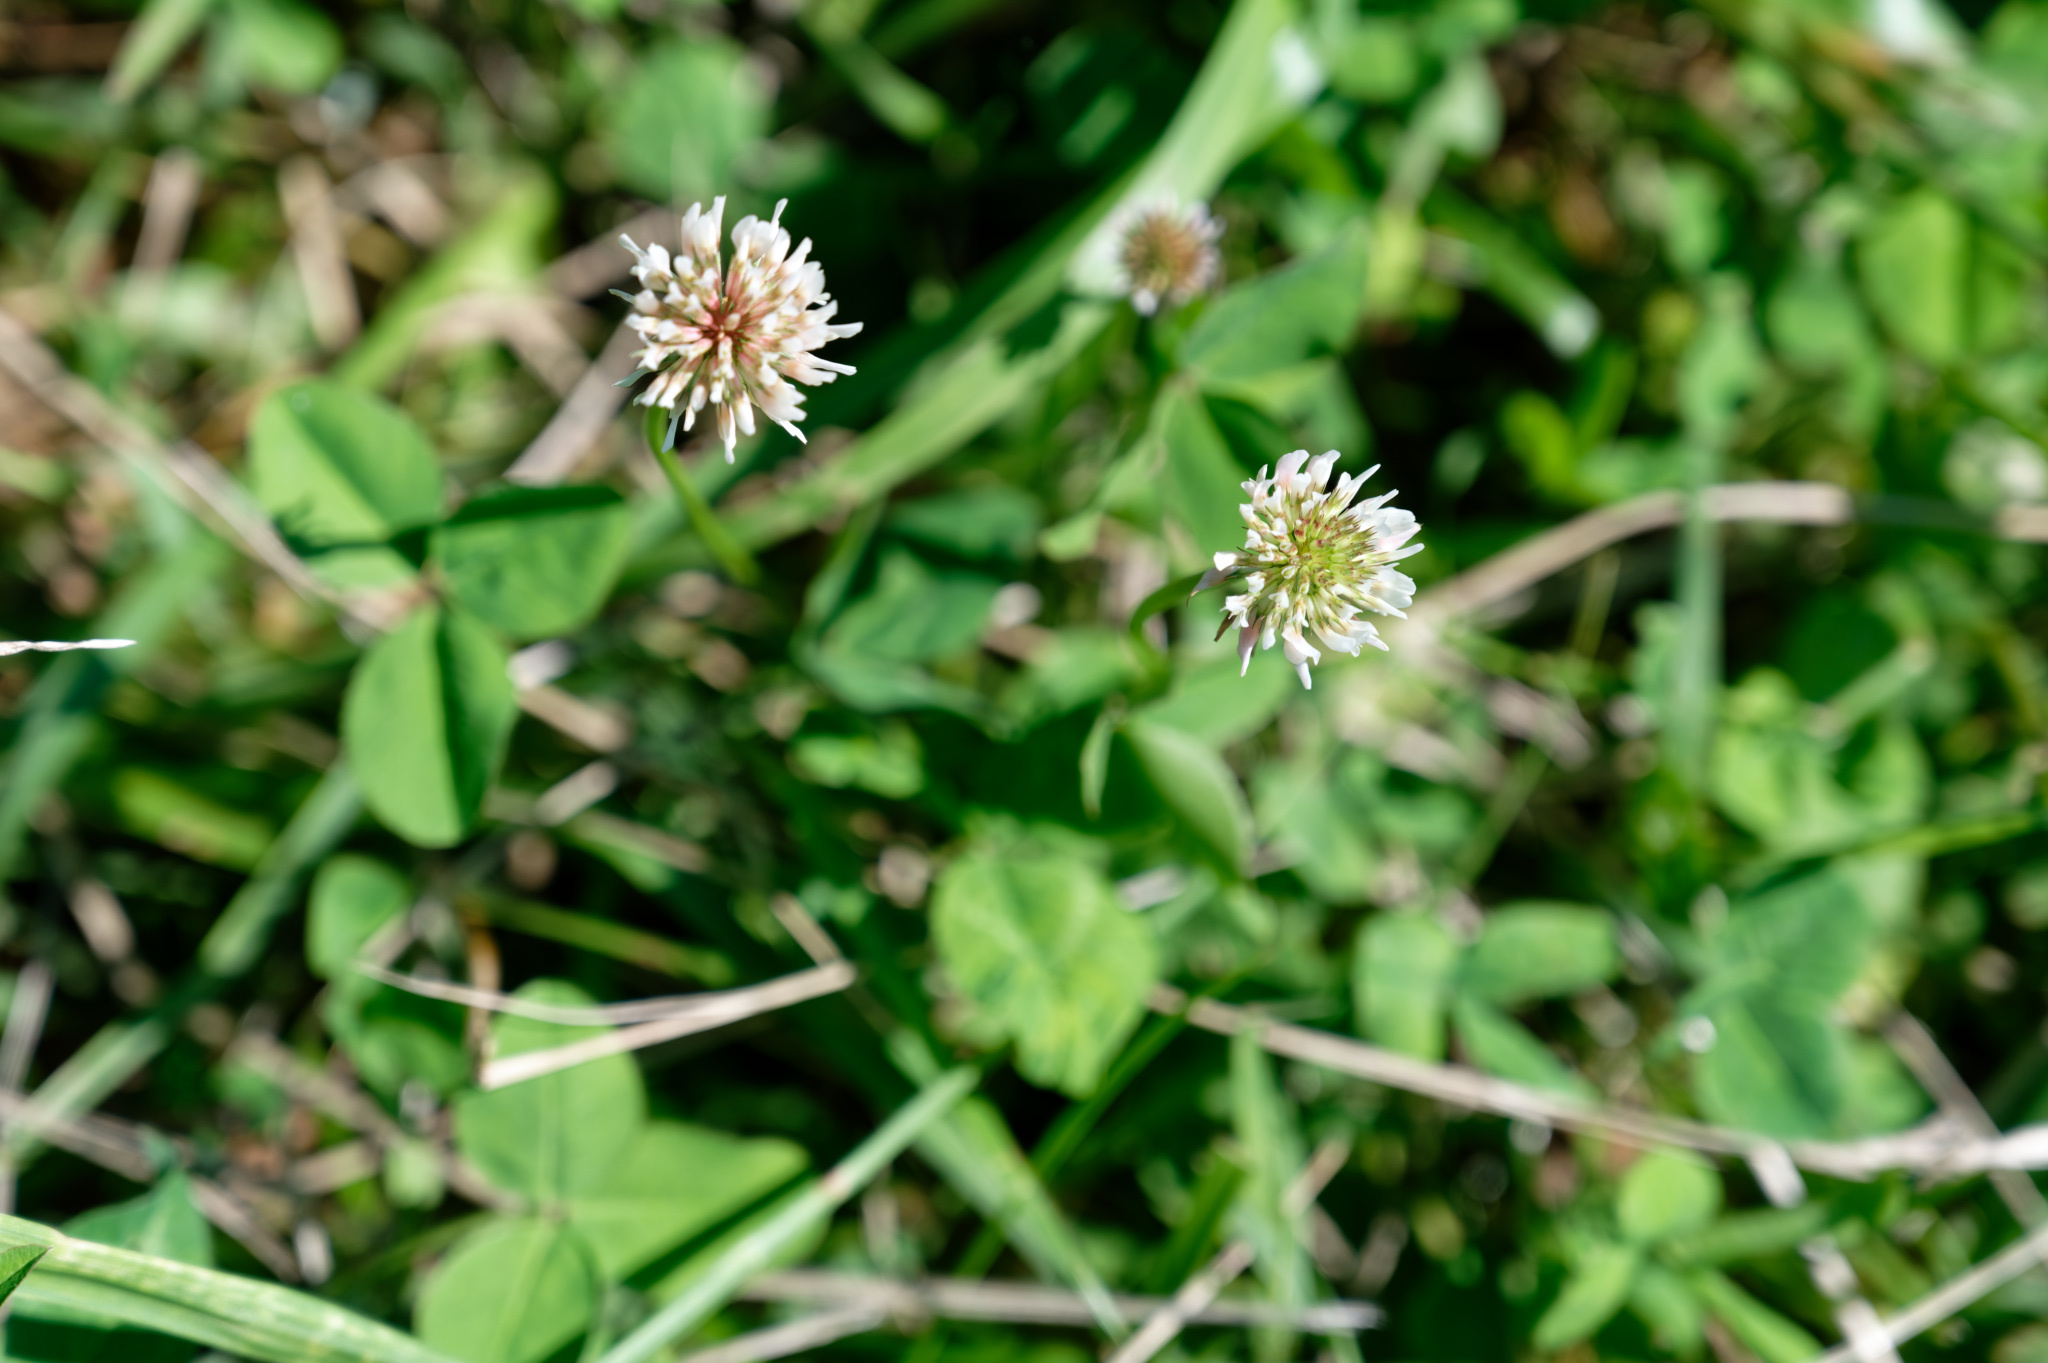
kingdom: Plantae
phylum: Tracheophyta
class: Magnoliopsida
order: Fabales
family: Fabaceae
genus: Trifolium
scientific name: Trifolium repens
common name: White clover
